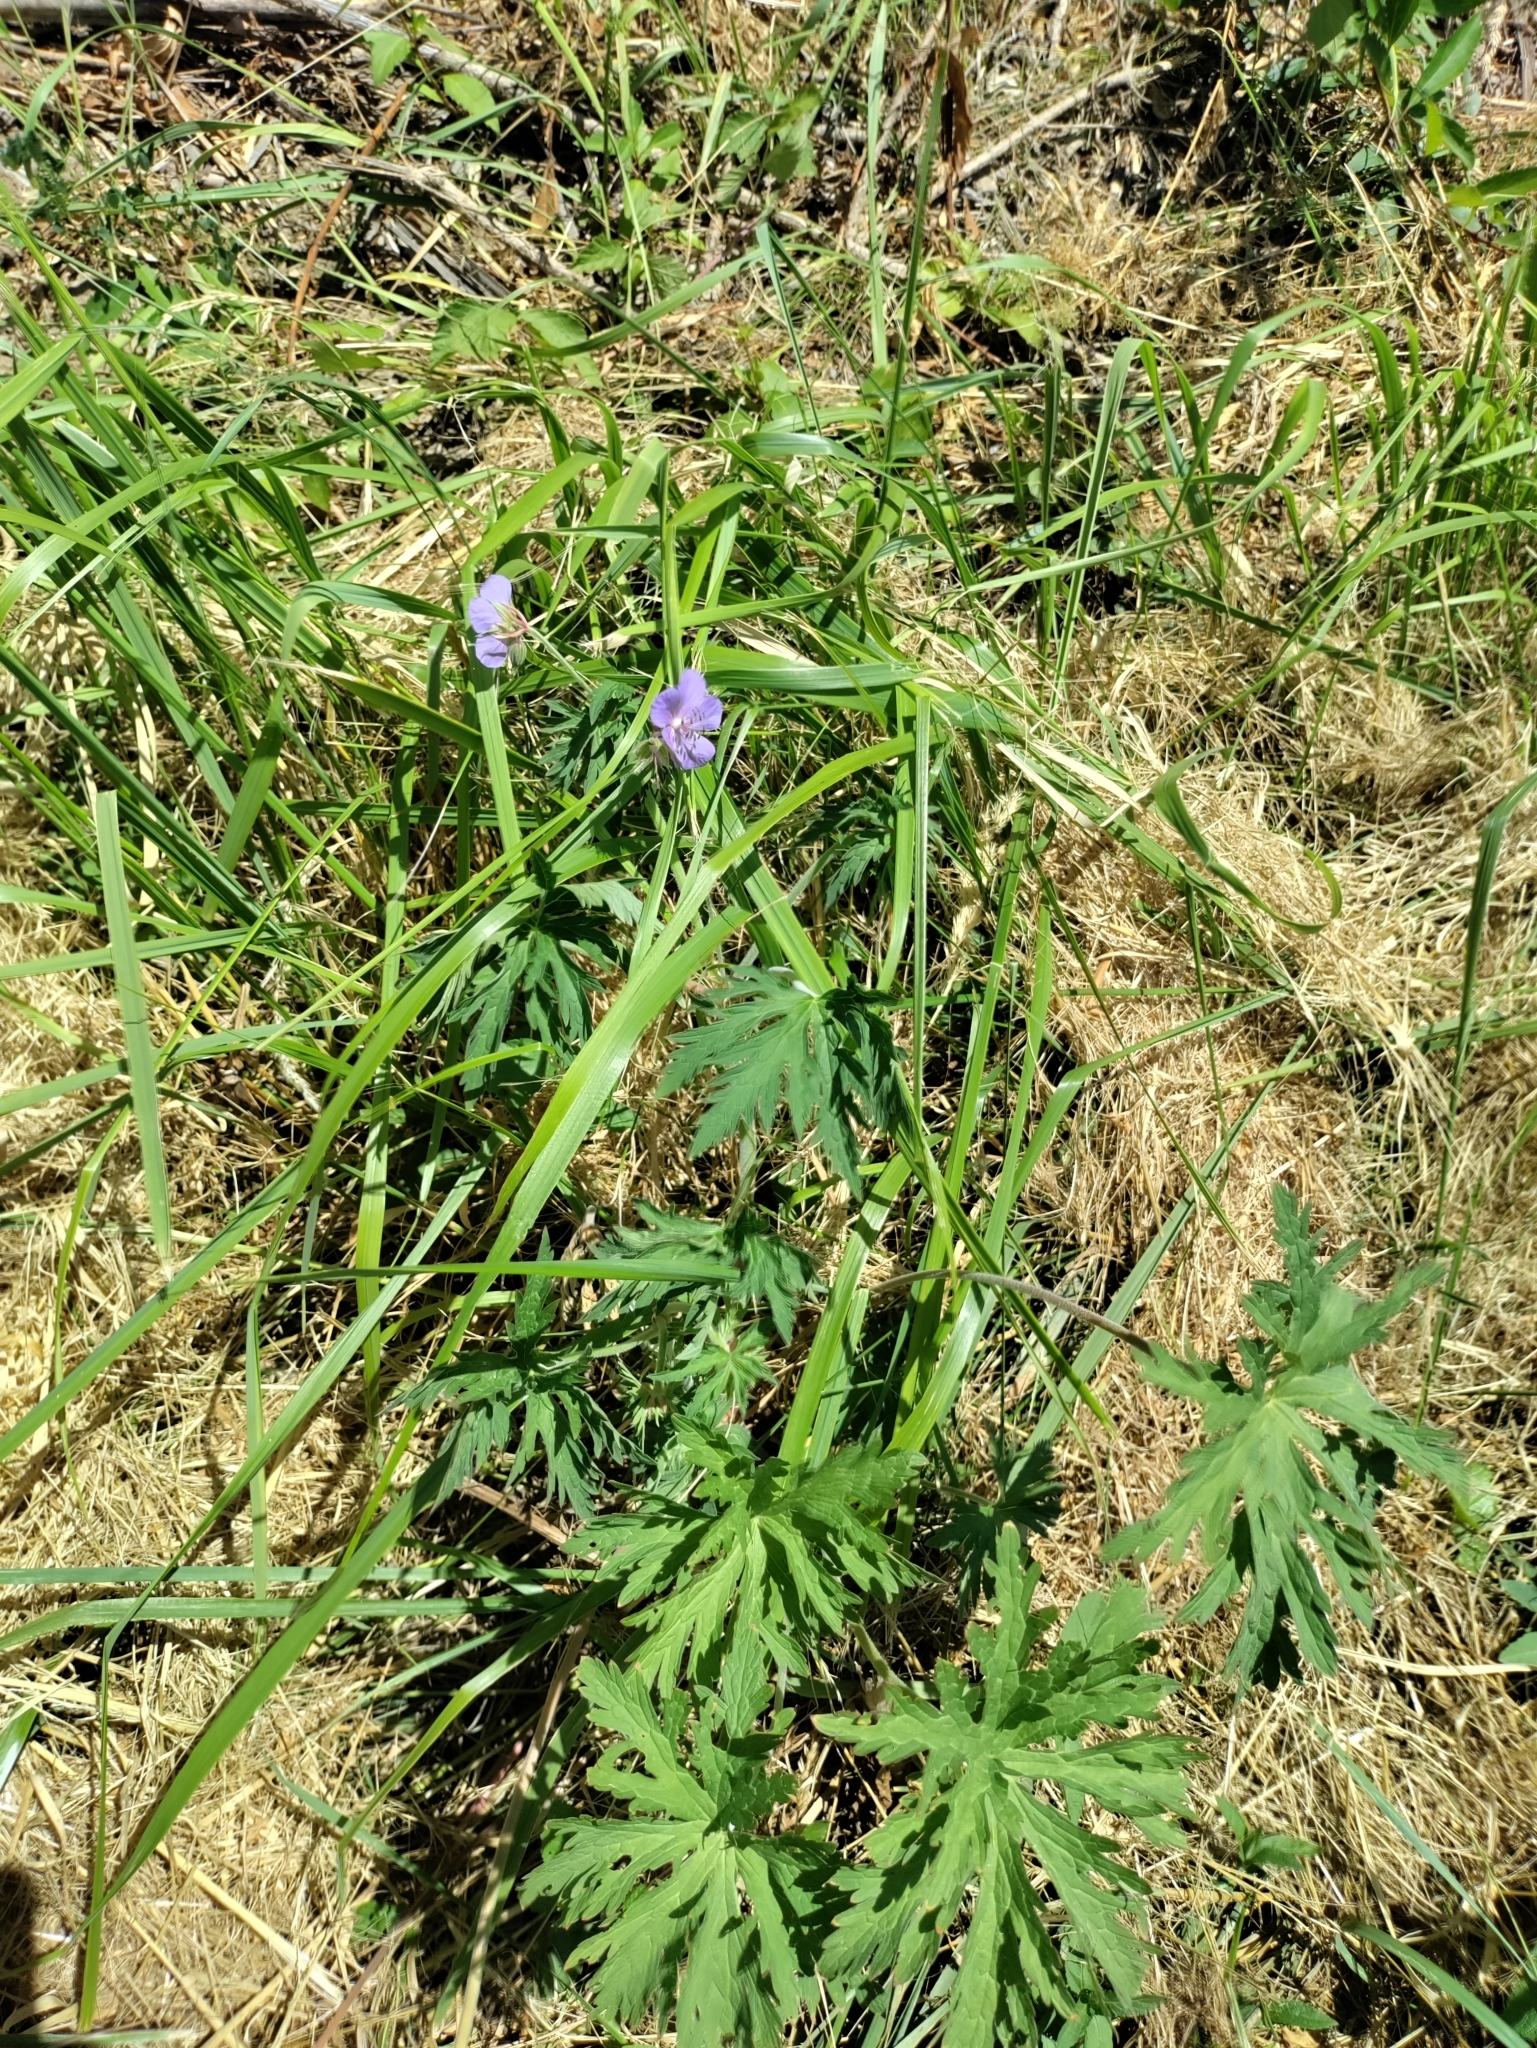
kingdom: Plantae
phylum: Tracheophyta
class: Magnoliopsida
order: Geraniales
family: Geraniaceae
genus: Geranium
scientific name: Geranium pratense
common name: Meadow crane's-bill
